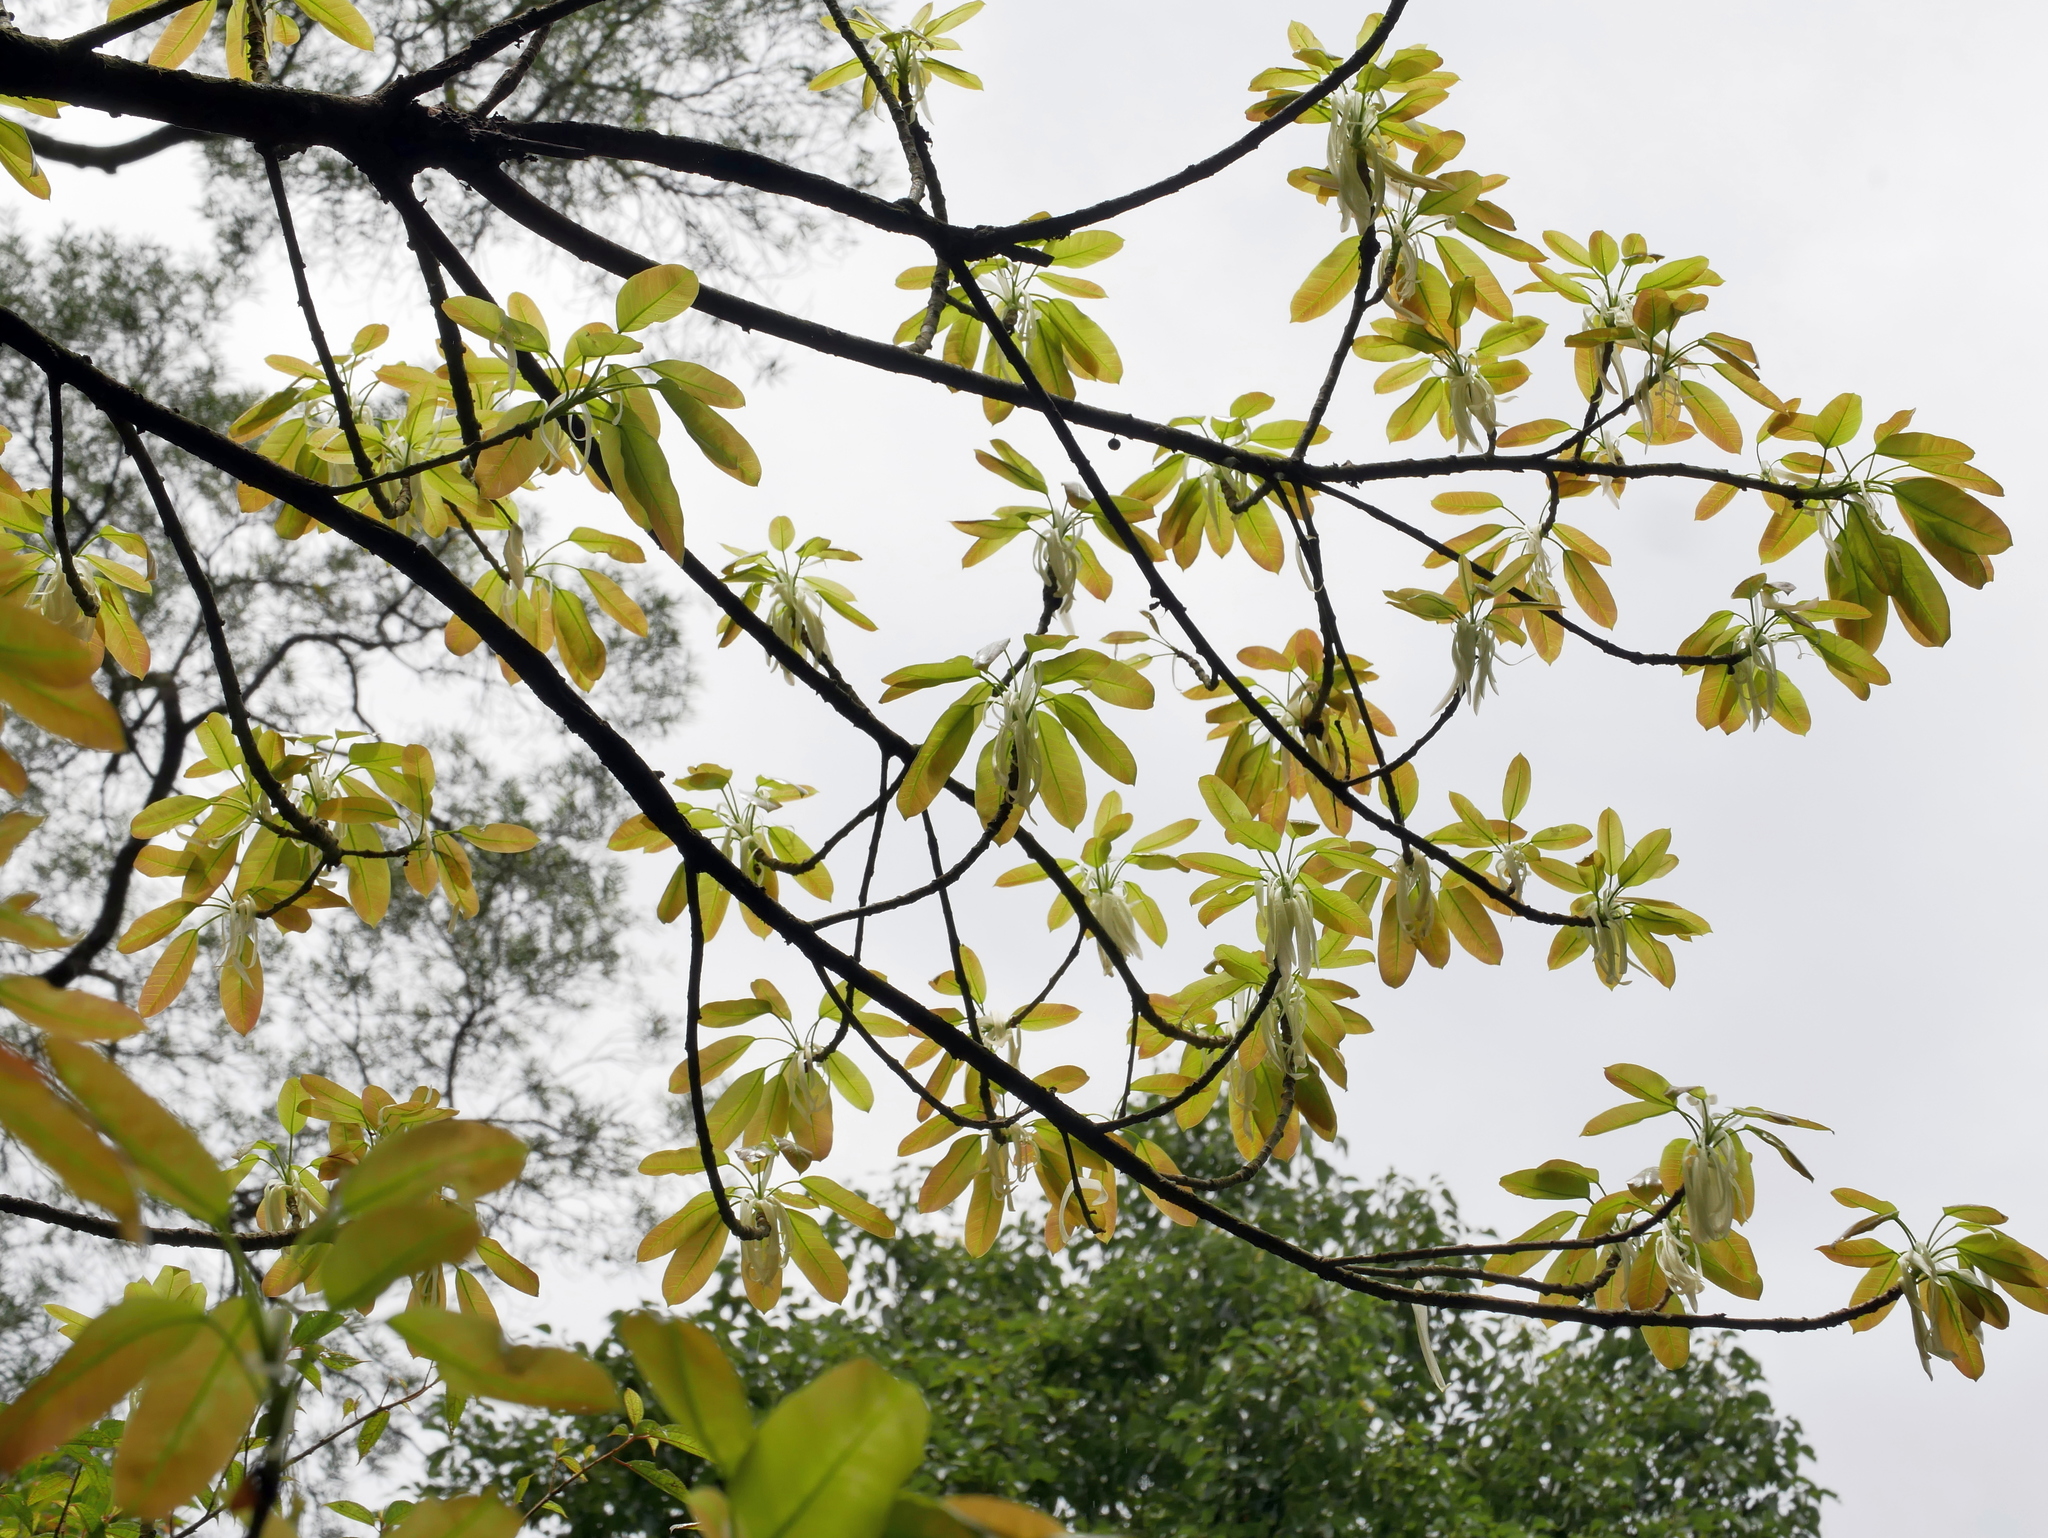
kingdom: Plantae
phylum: Tracheophyta
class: Magnoliopsida
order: Rosales
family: Moraceae
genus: Ficus
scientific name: Ficus subpisocarpa
